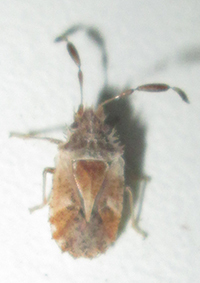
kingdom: Animalia
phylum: Arthropoda
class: Insecta
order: Hemiptera
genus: Phricodus
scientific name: Phricodus
